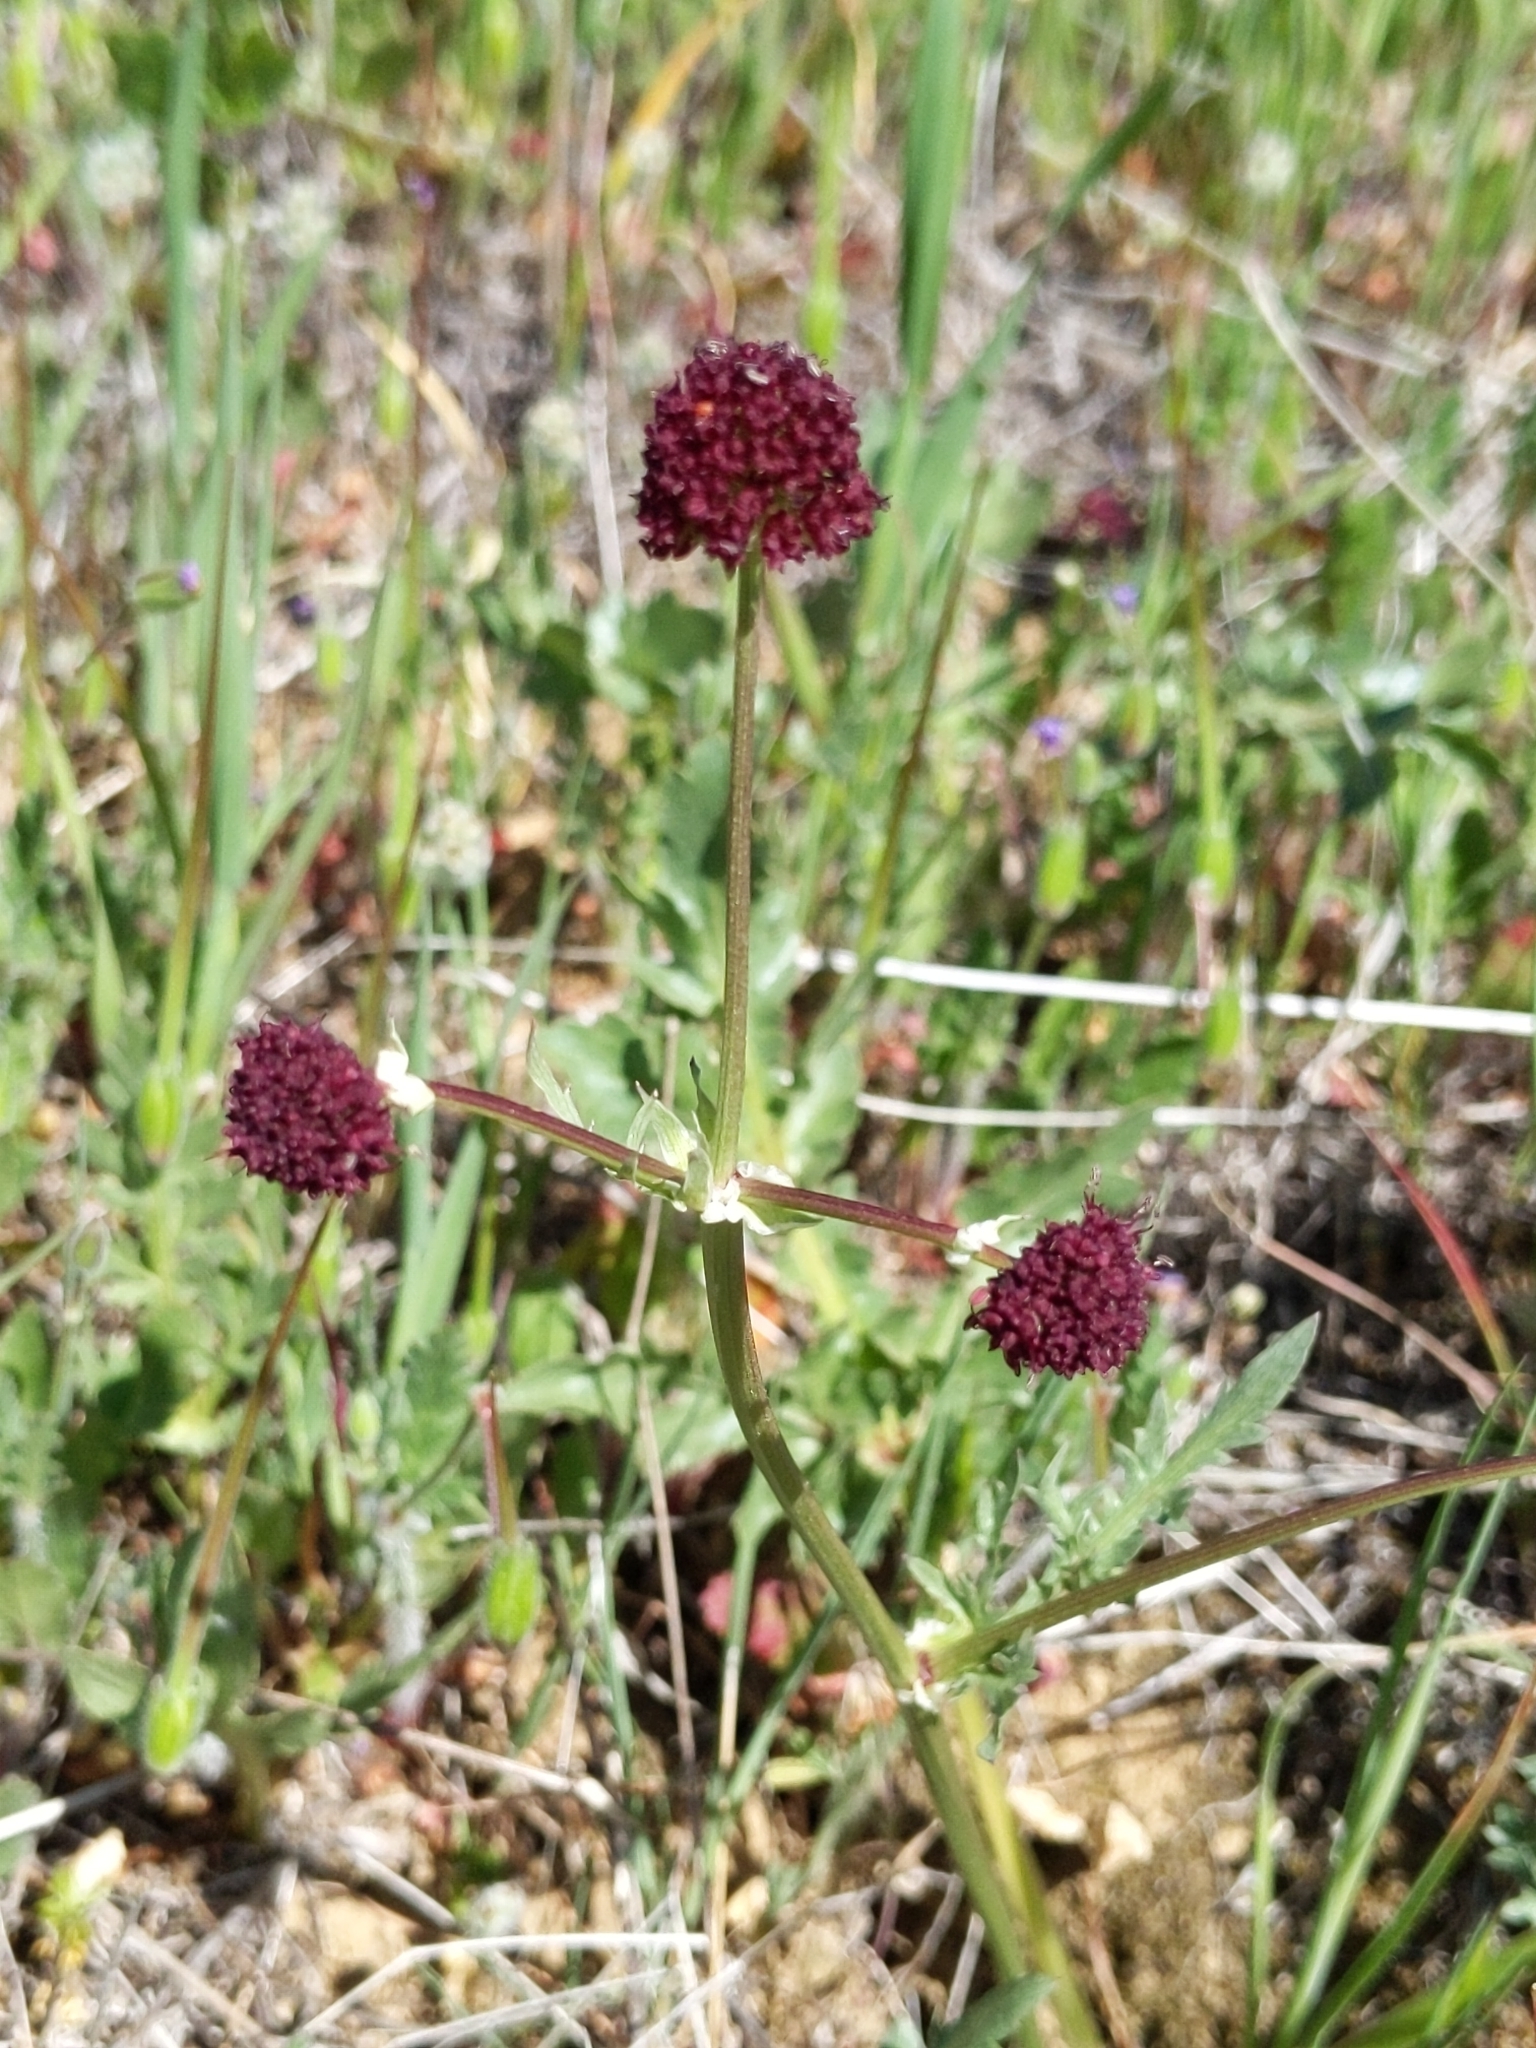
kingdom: Plantae
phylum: Tracheophyta
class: Magnoliopsida
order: Apiales
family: Apiaceae
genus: Sanicula
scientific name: Sanicula bipinnatifida
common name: Shoe-buttons
